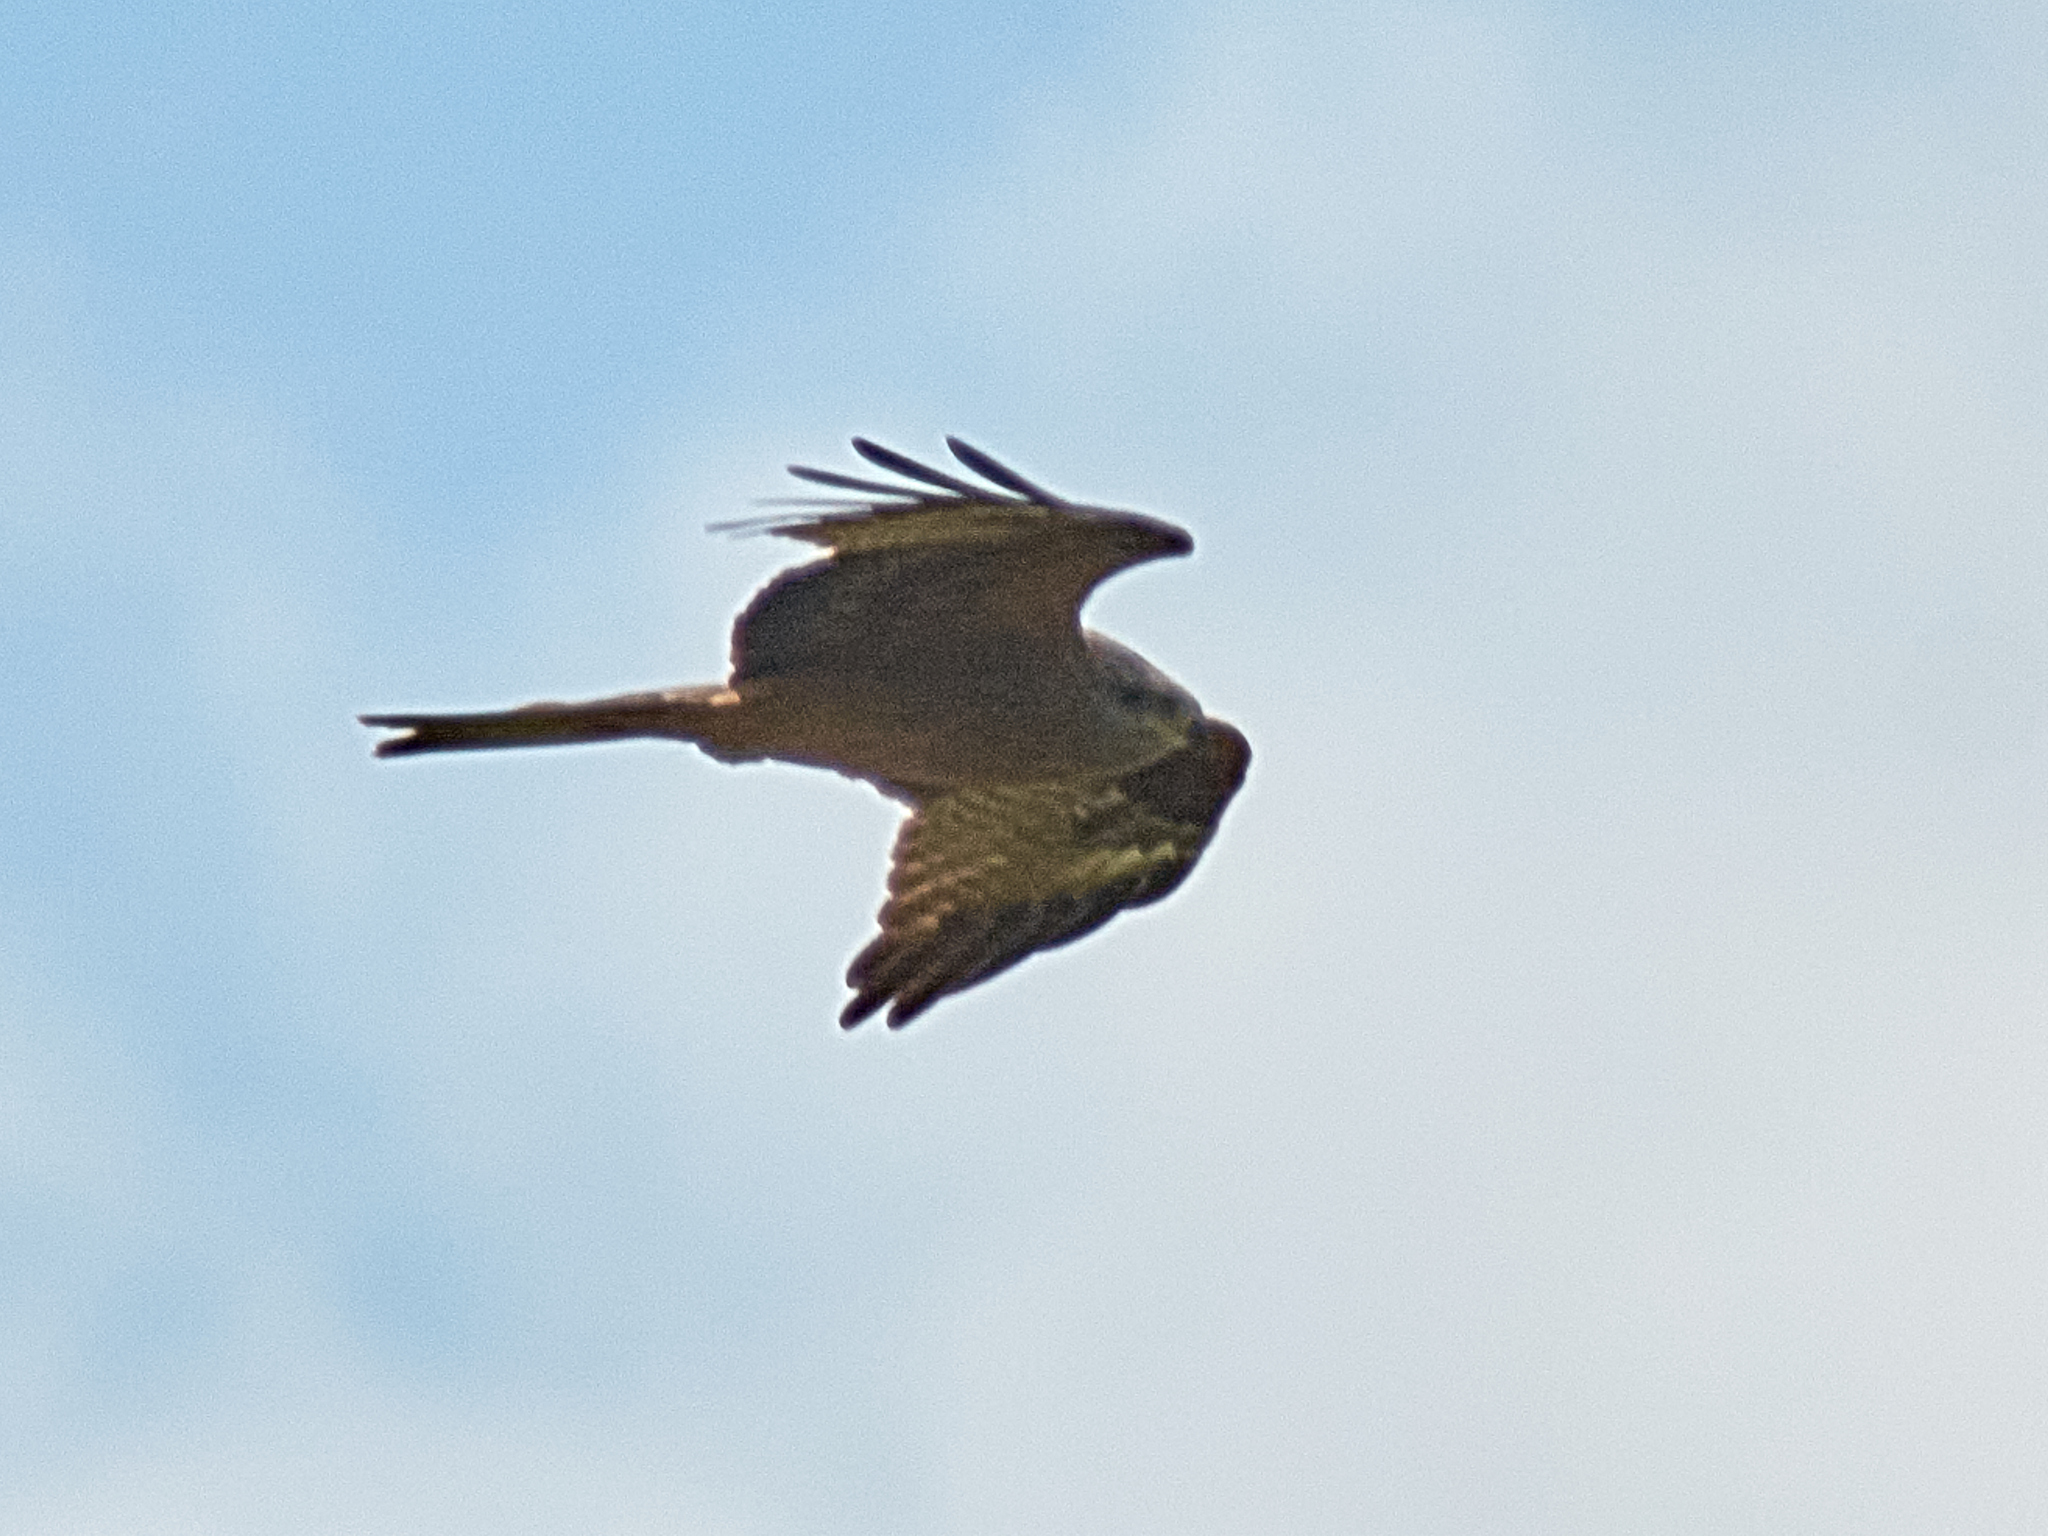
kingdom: Animalia
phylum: Chordata
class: Aves
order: Accipitriformes
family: Accipitridae
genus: Milvus
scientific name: Milvus migrans
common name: Black kite
